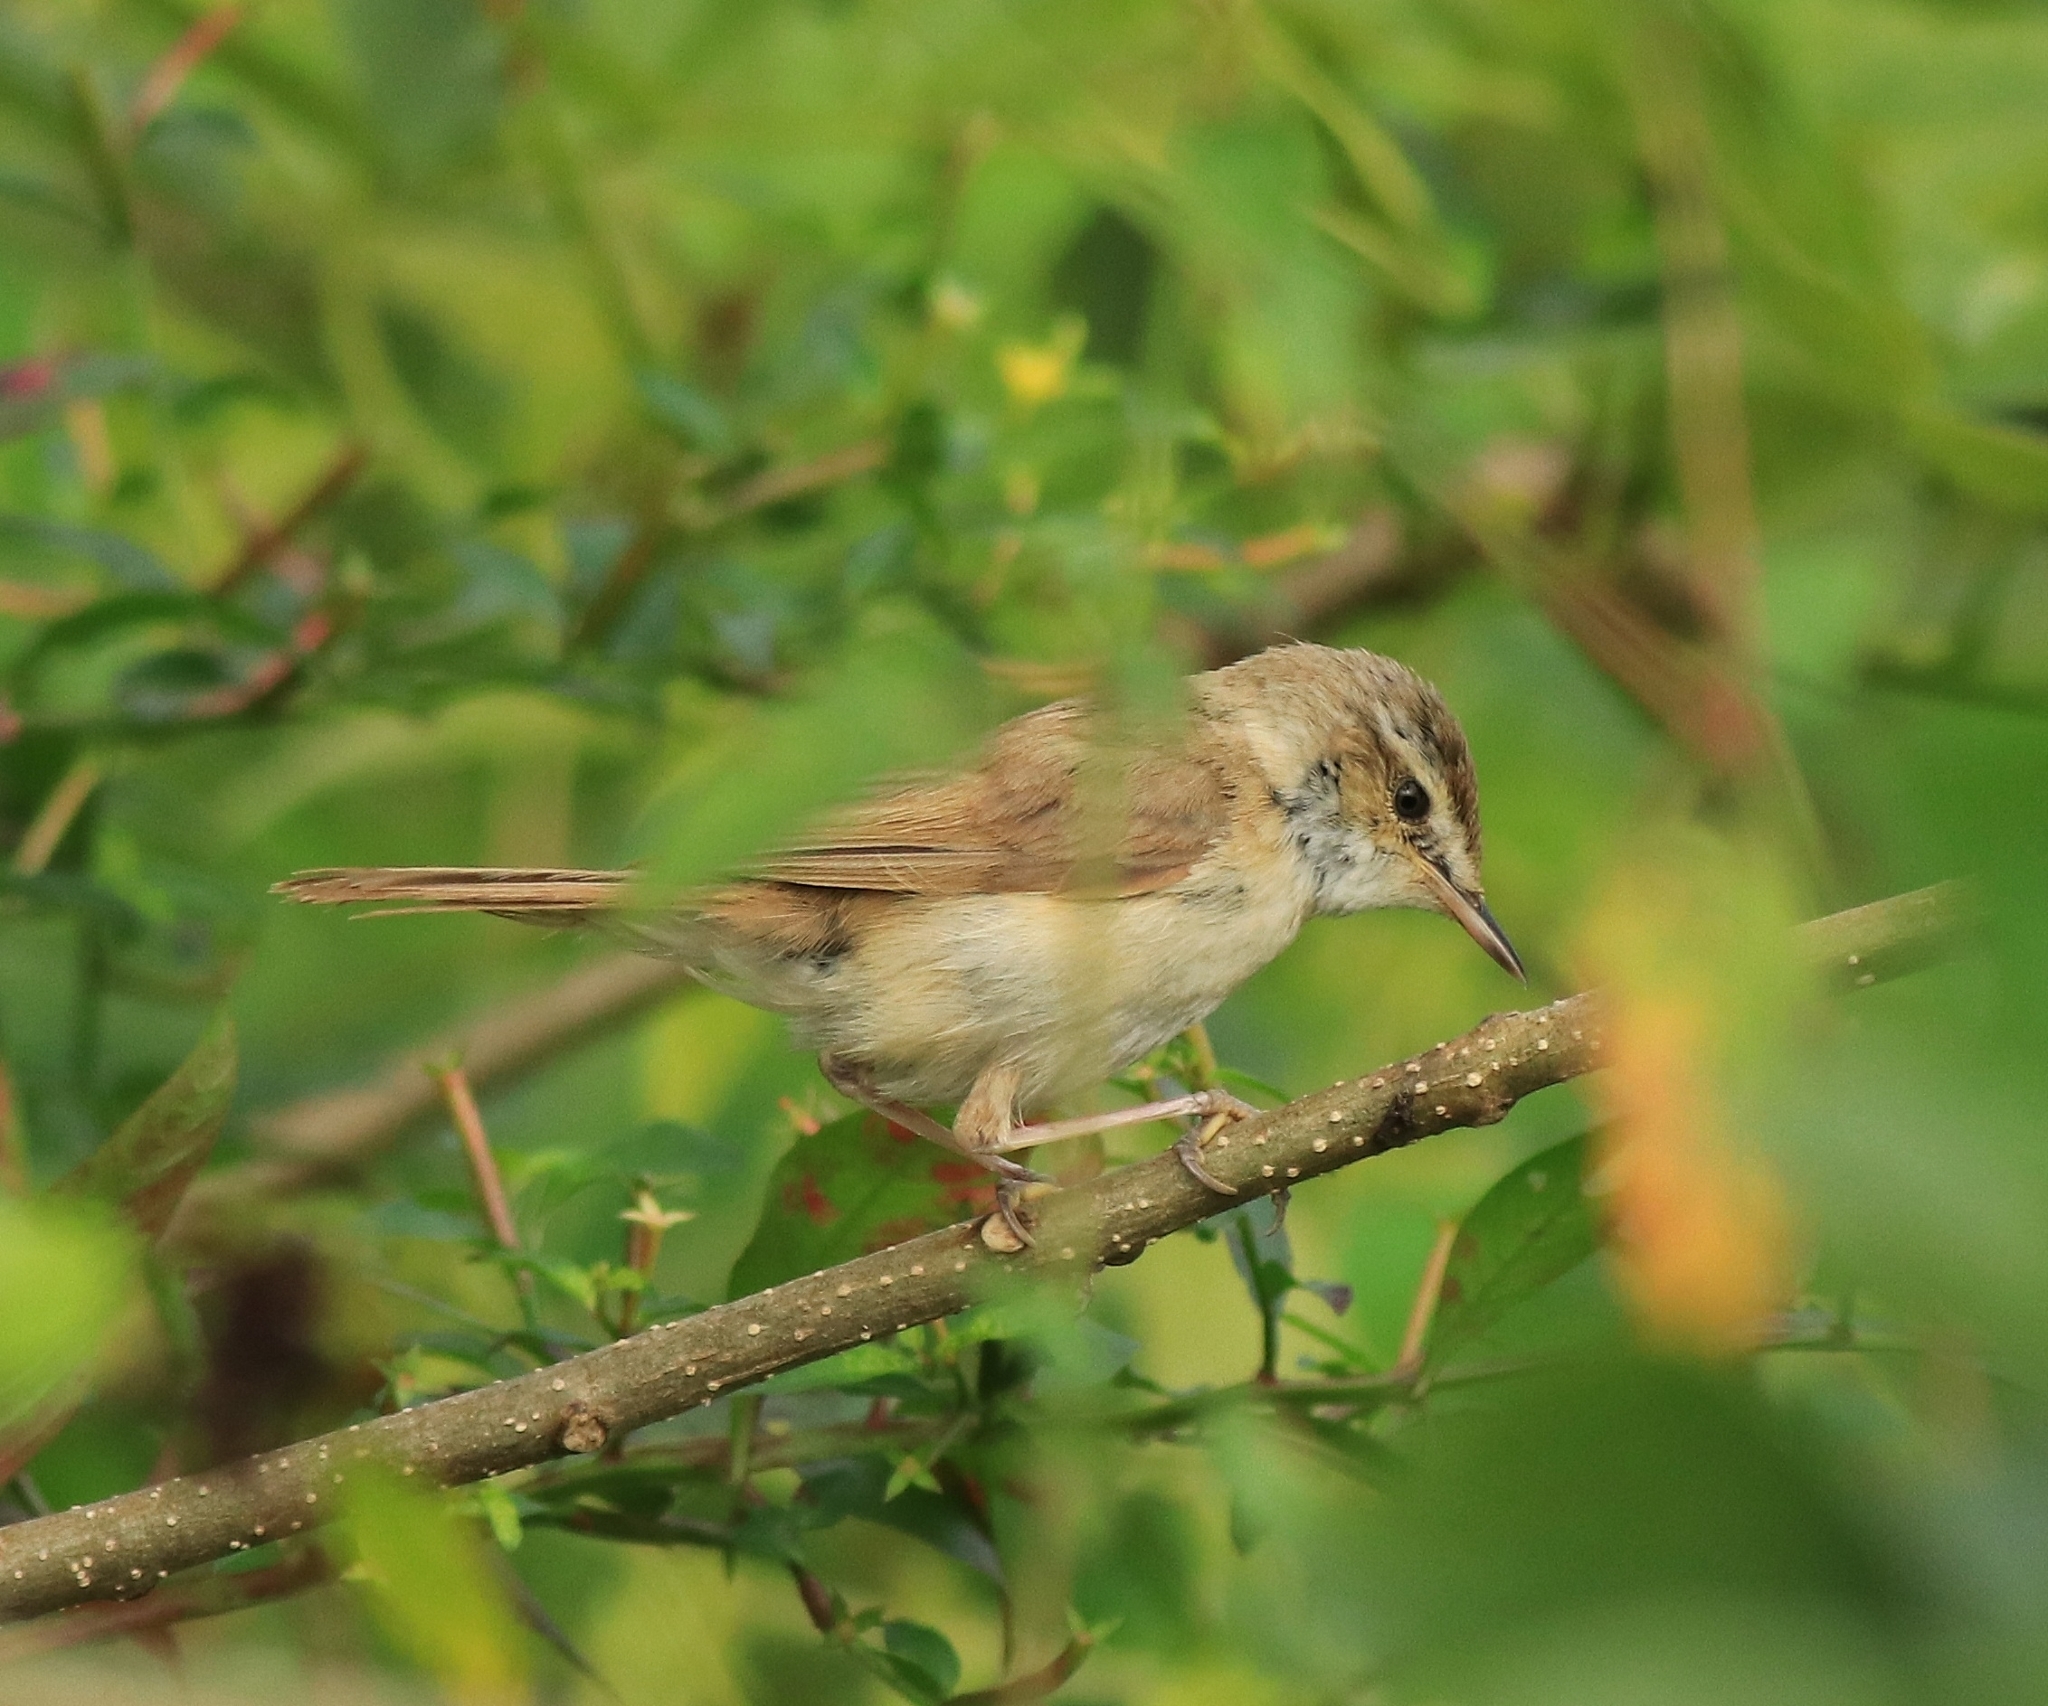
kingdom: Animalia
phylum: Chordata
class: Aves
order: Passeriformes
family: Acrocephalidae
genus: Acrocephalus
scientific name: Acrocephalus agricola
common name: Paddyfield warbler
